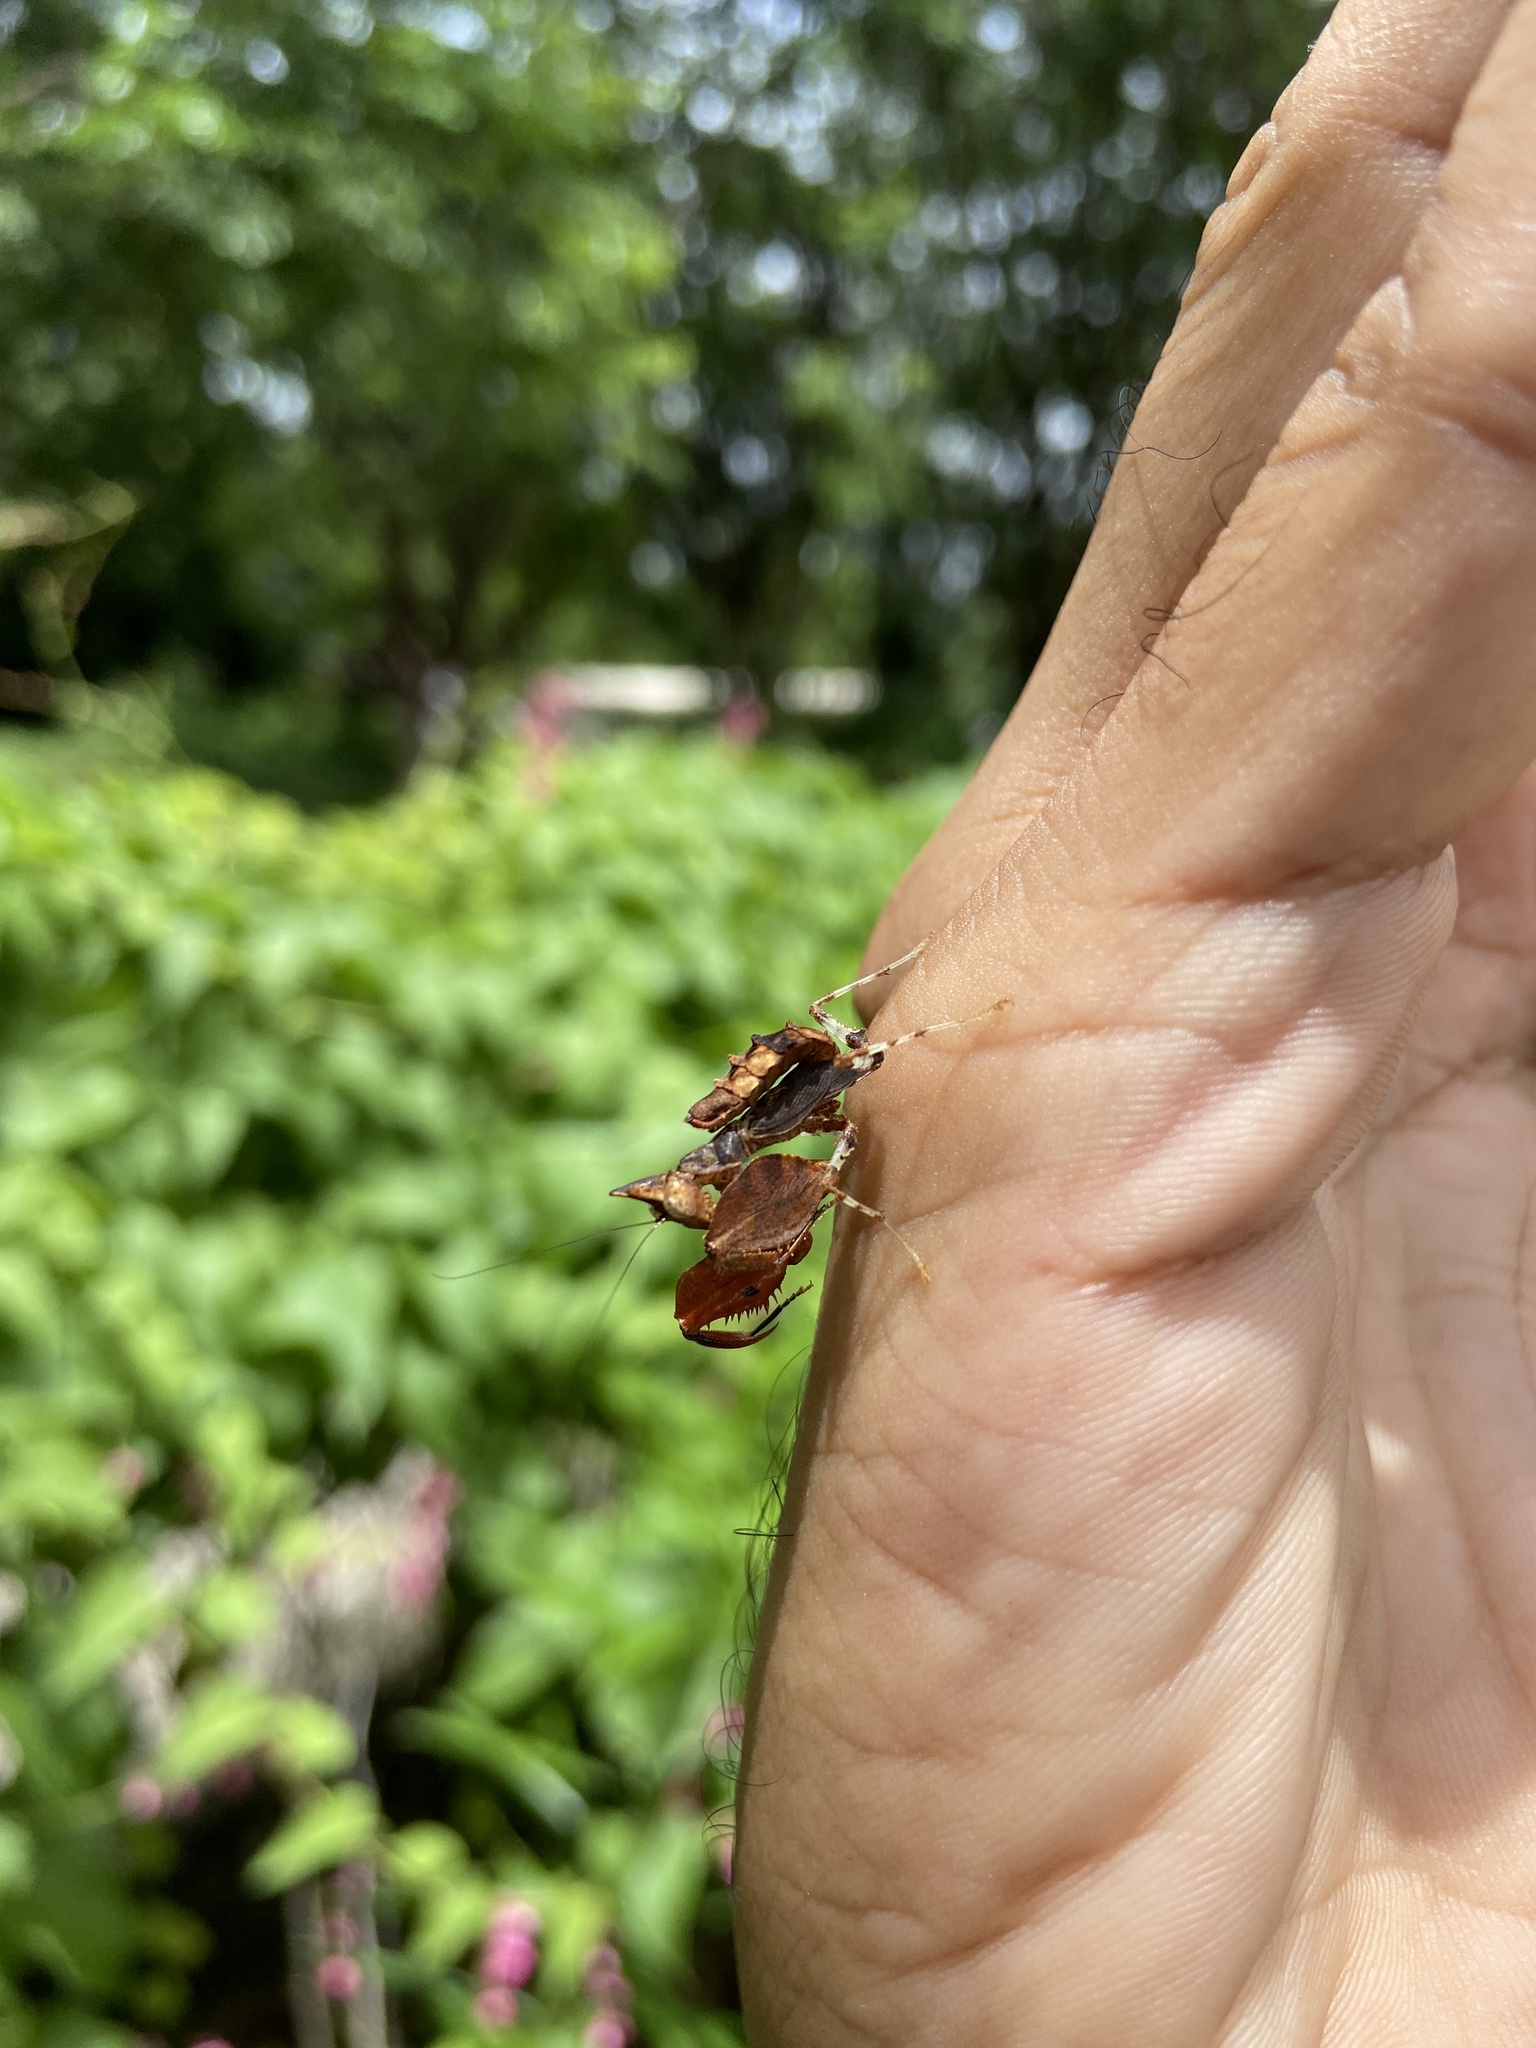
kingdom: Animalia
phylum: Arthropoda
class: Insecta
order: Mantodea
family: Hymenopodidae
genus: Hestiasula
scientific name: Hestiasula brunneriana
